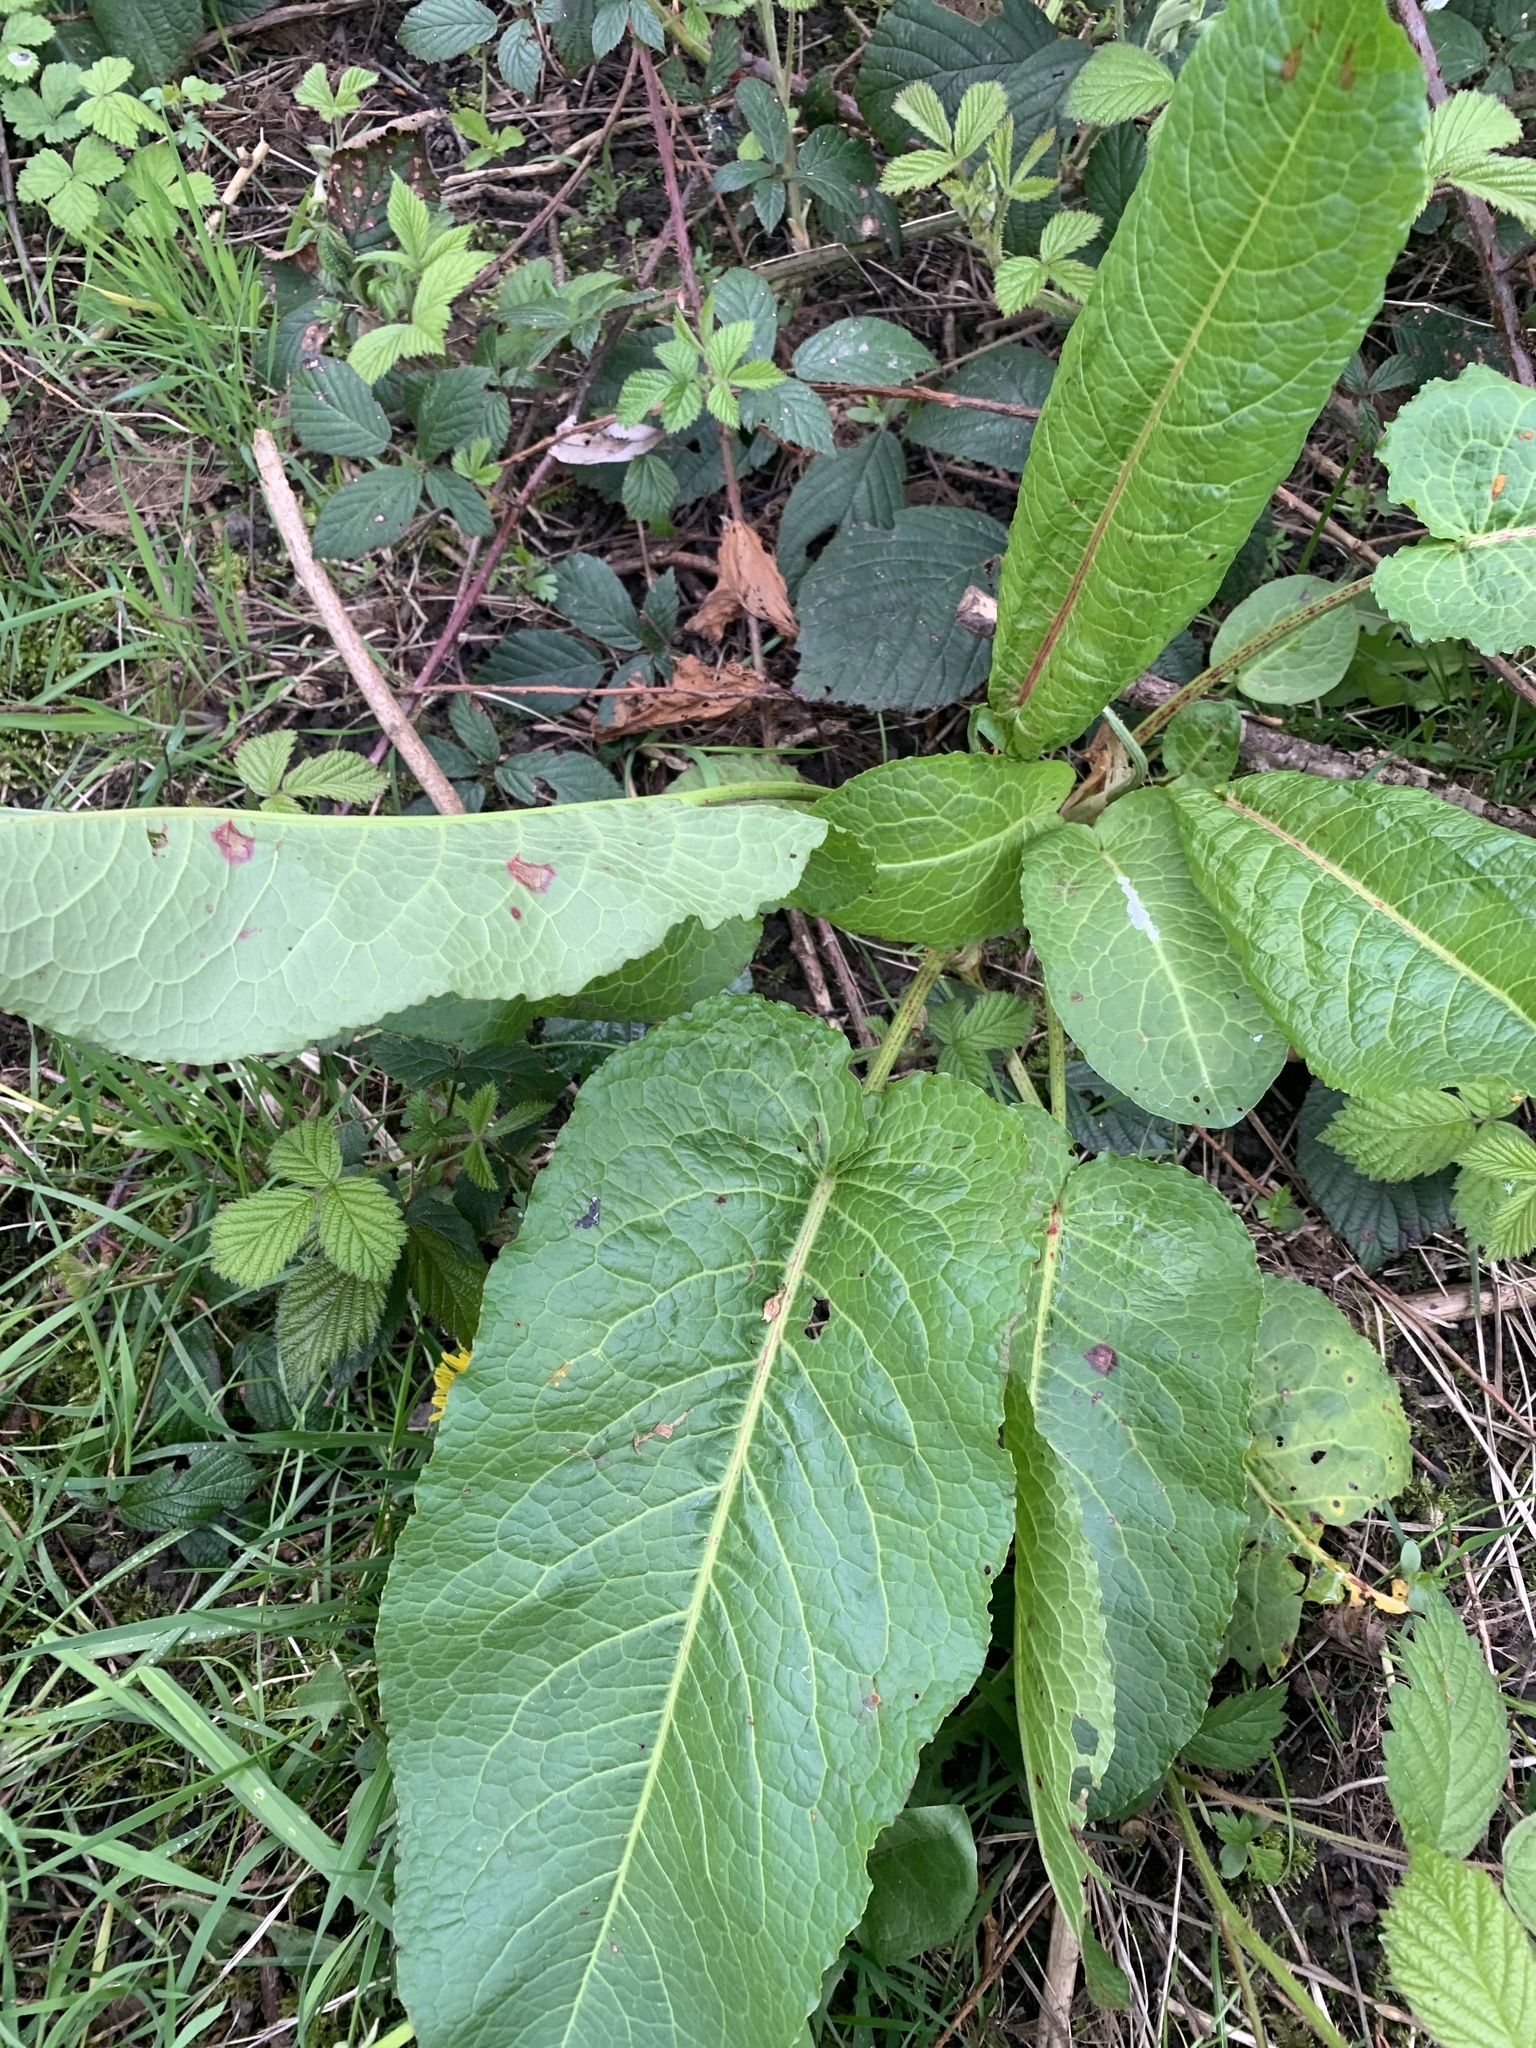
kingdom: Plantae
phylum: Tracheophyta
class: Magnoliopsida
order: Caryophyllales
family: Polygonaceae
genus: Rumex
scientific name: Rumex obtusifolius
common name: Bitter dock
